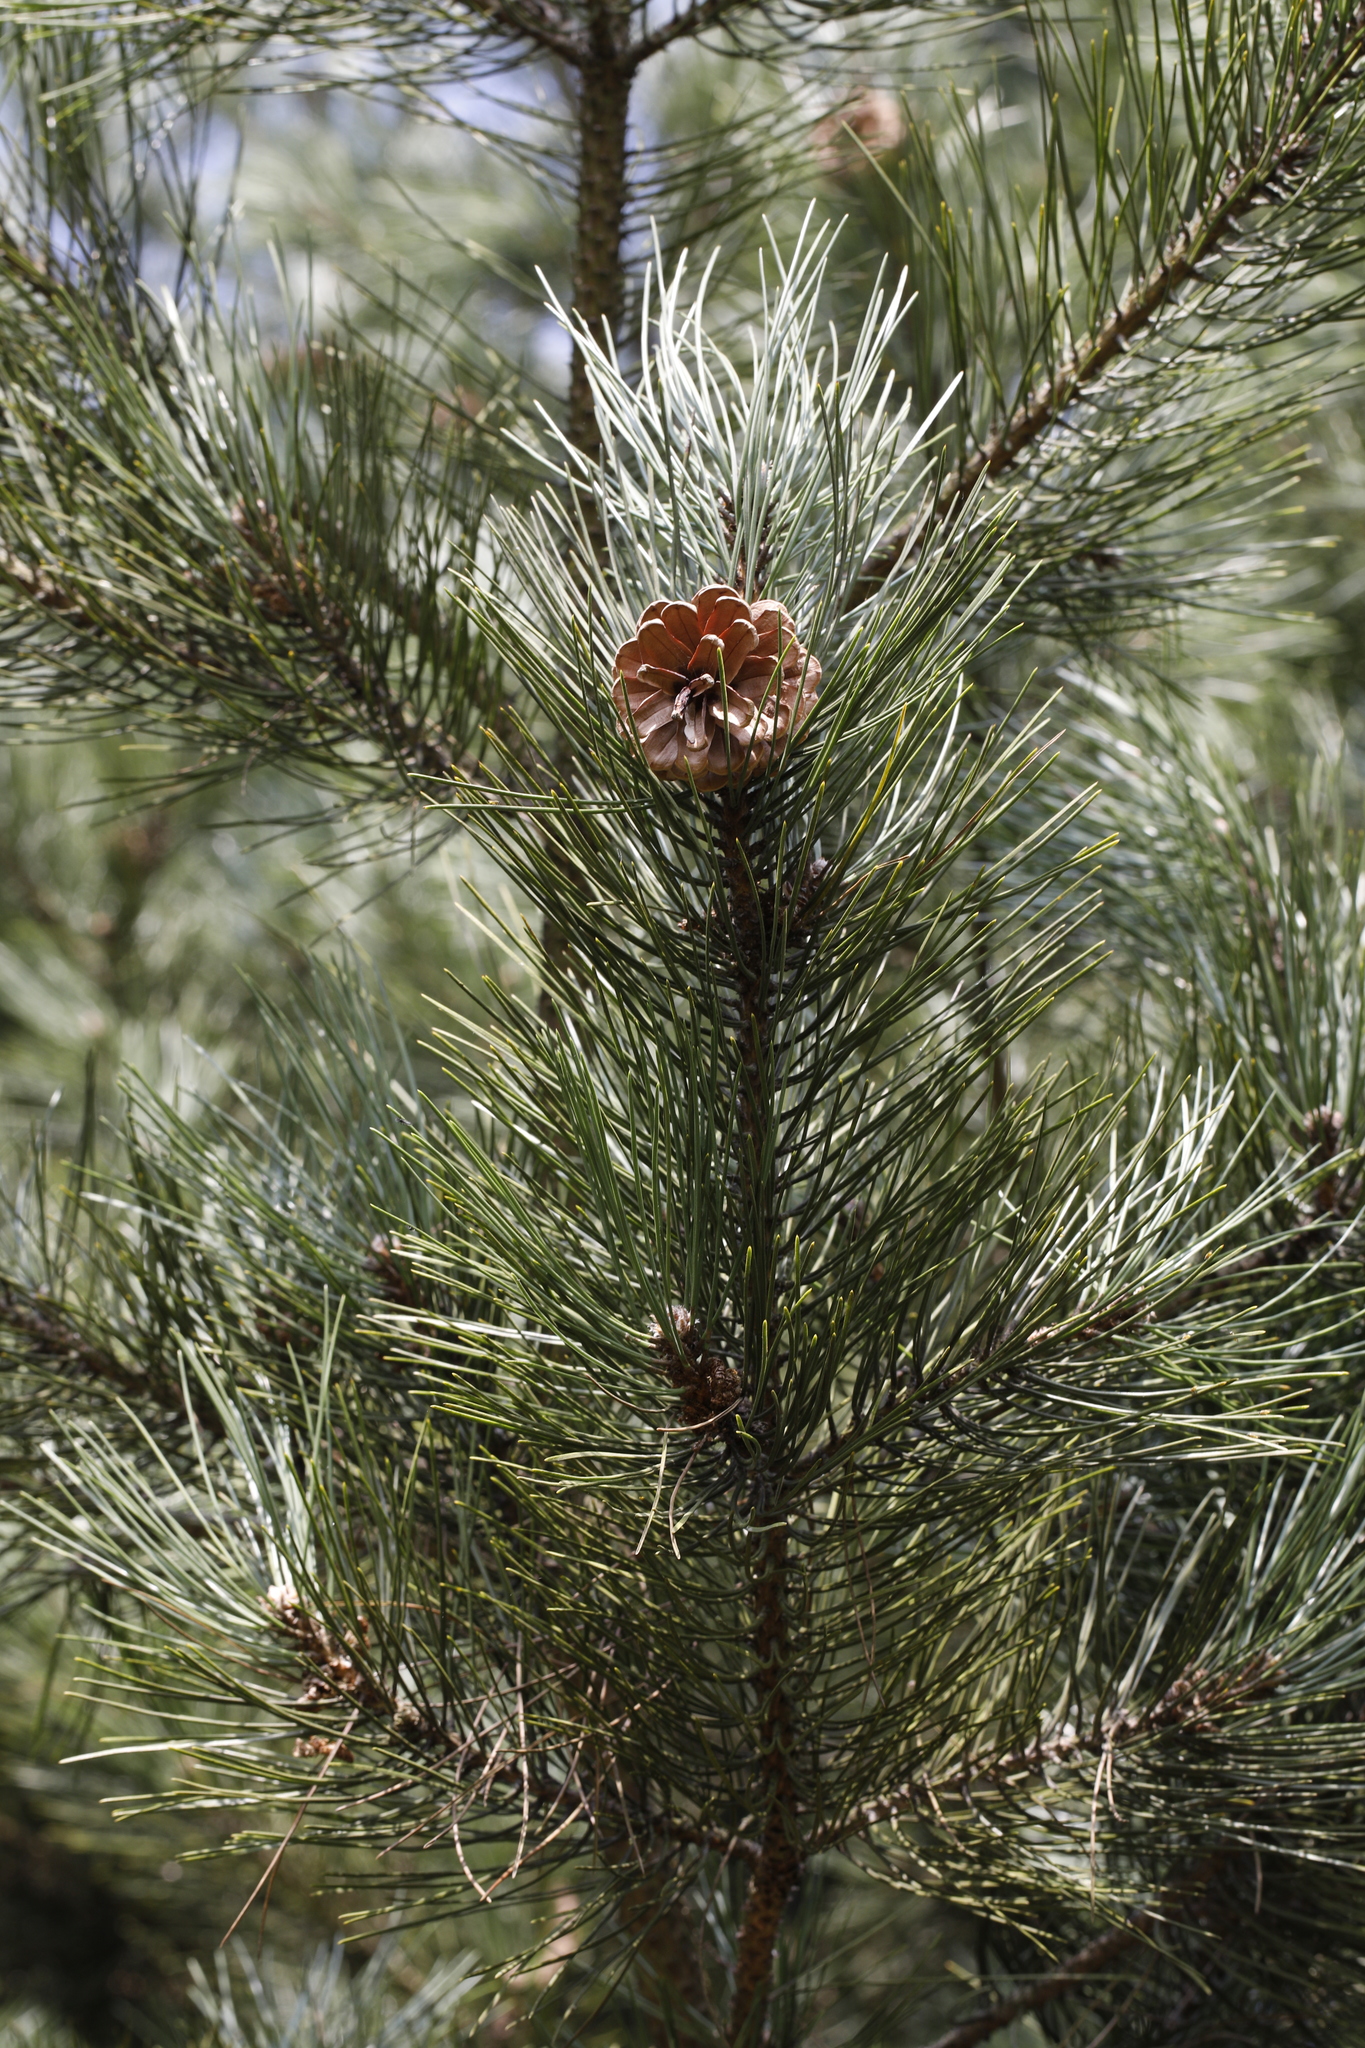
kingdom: Plantae
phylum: Tracheophyta
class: Pinopsida
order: Pinales
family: Pinaceae
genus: Pinus
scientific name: Pinus sylvestris
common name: Scots pine
